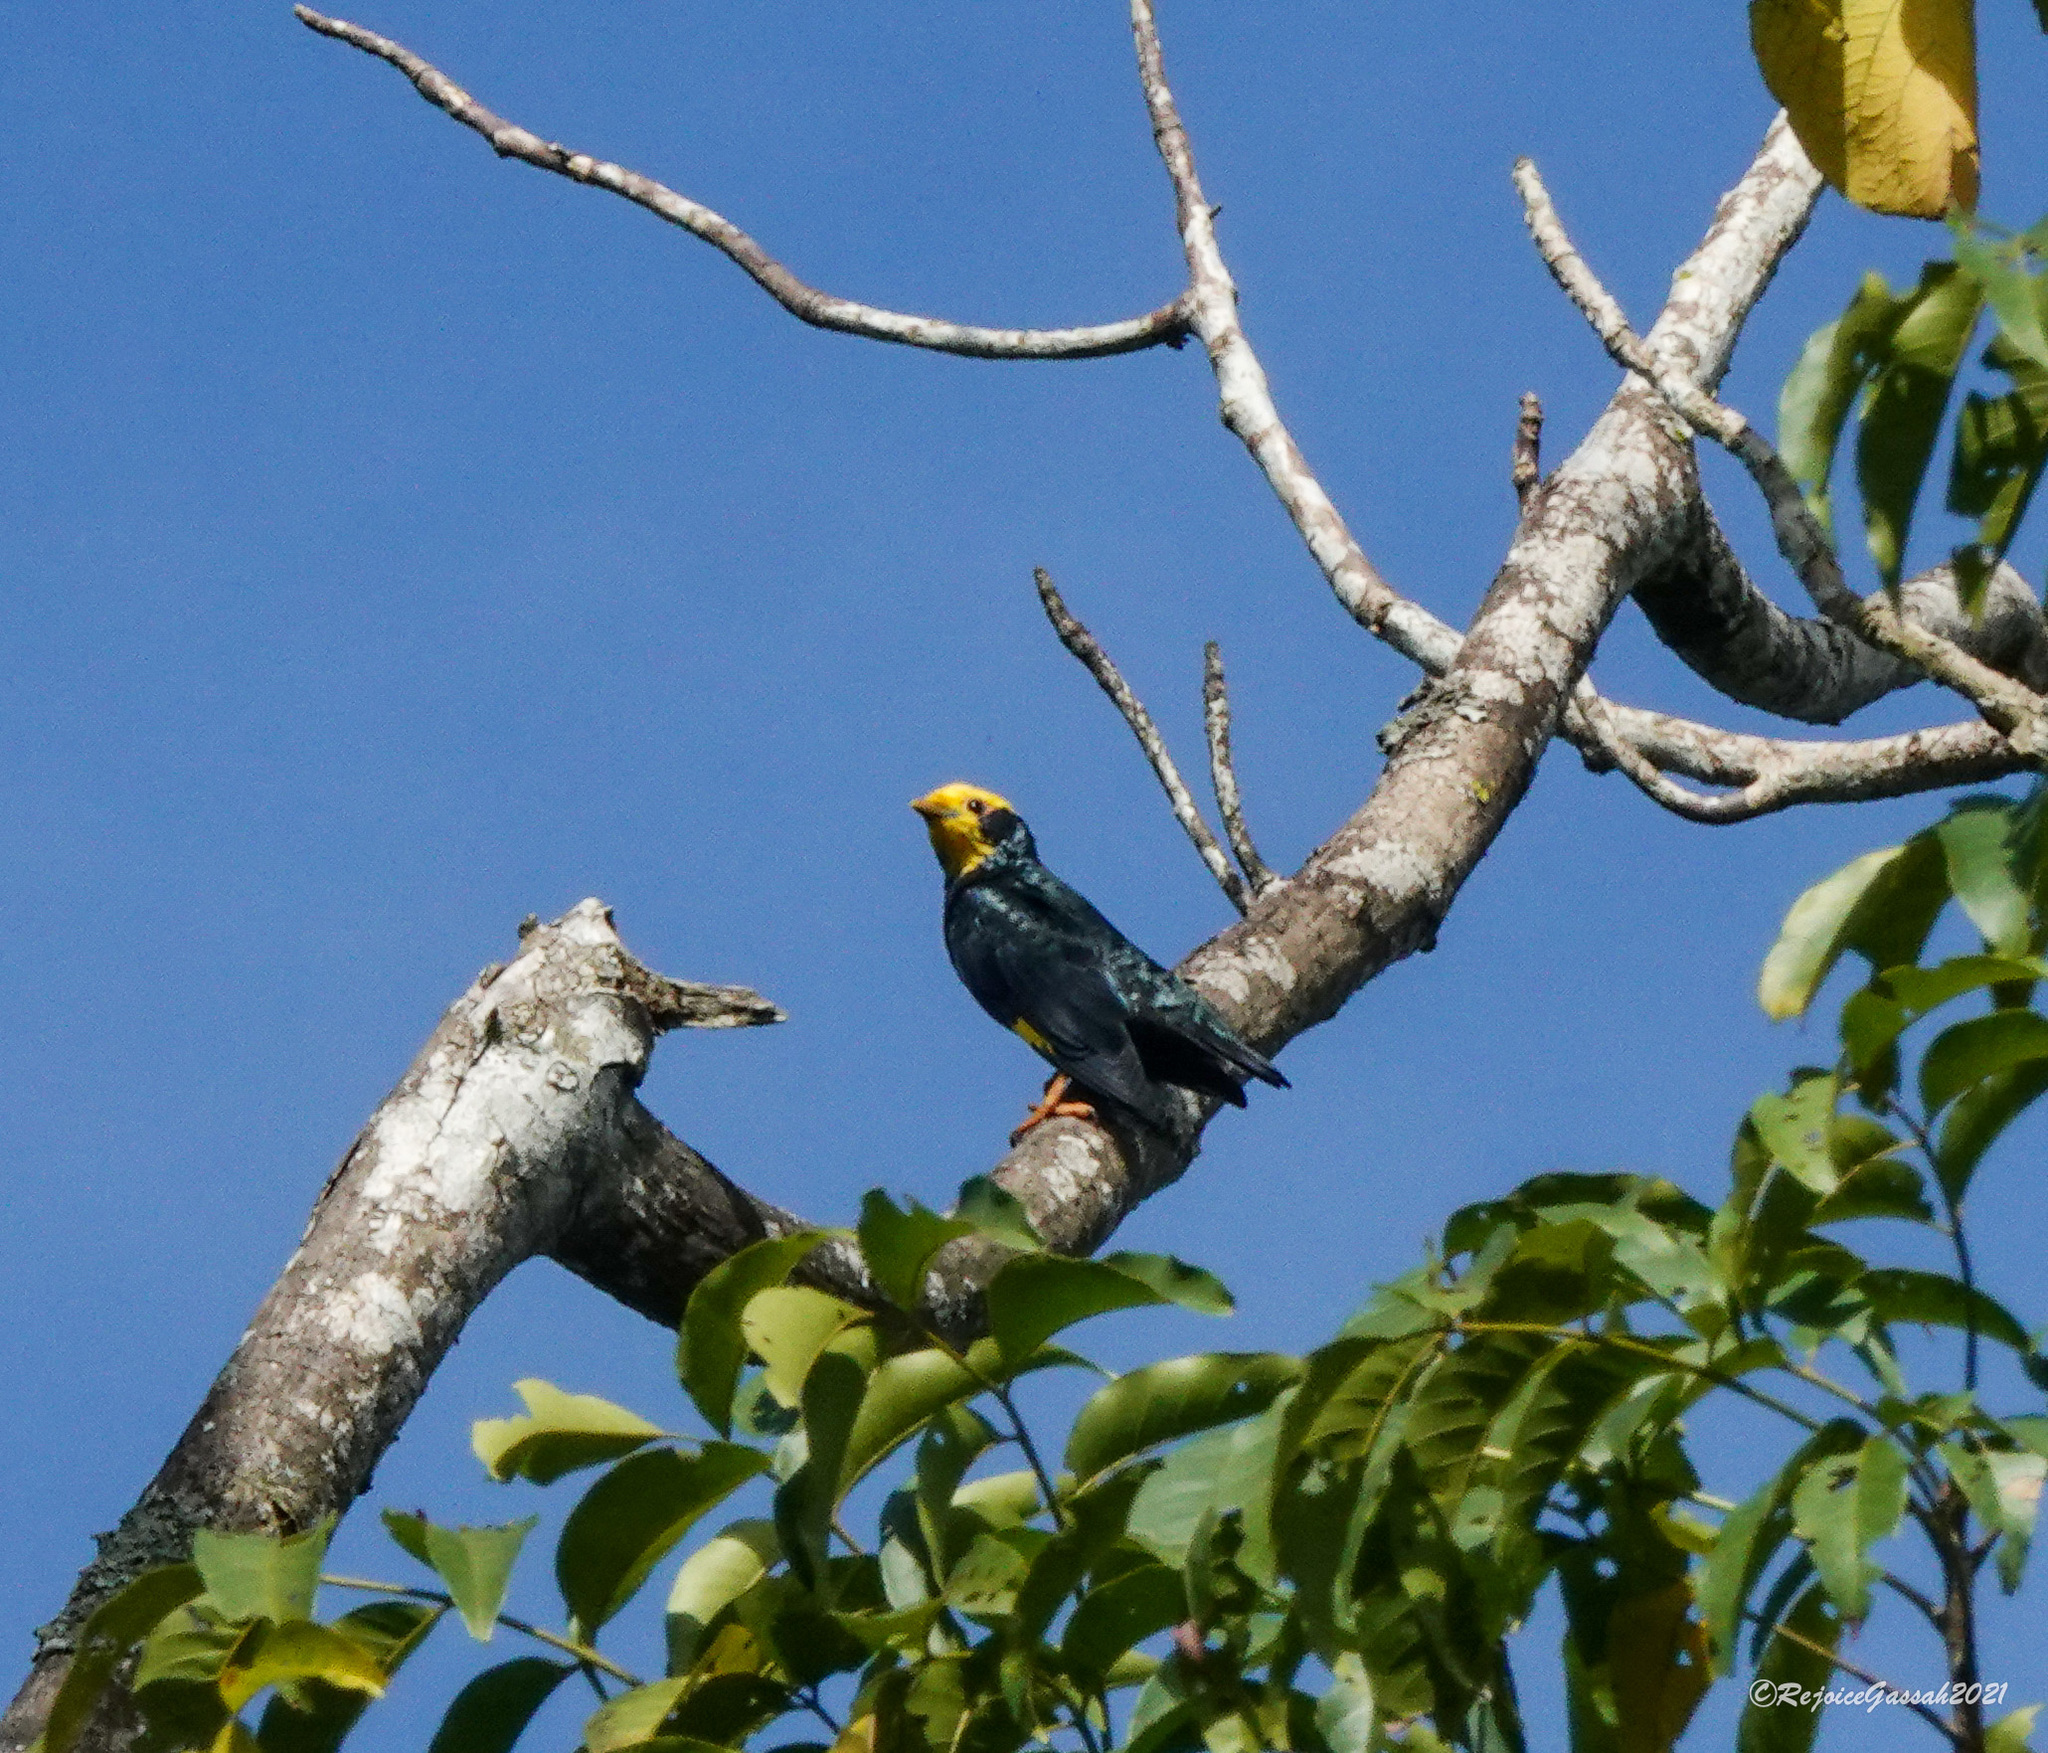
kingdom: Animalia
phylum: Chordata
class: Aves
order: Passeriformes
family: Sturnidae
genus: Ampeliceps
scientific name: Ampeliceps coronatus
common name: Golden-crested myna
